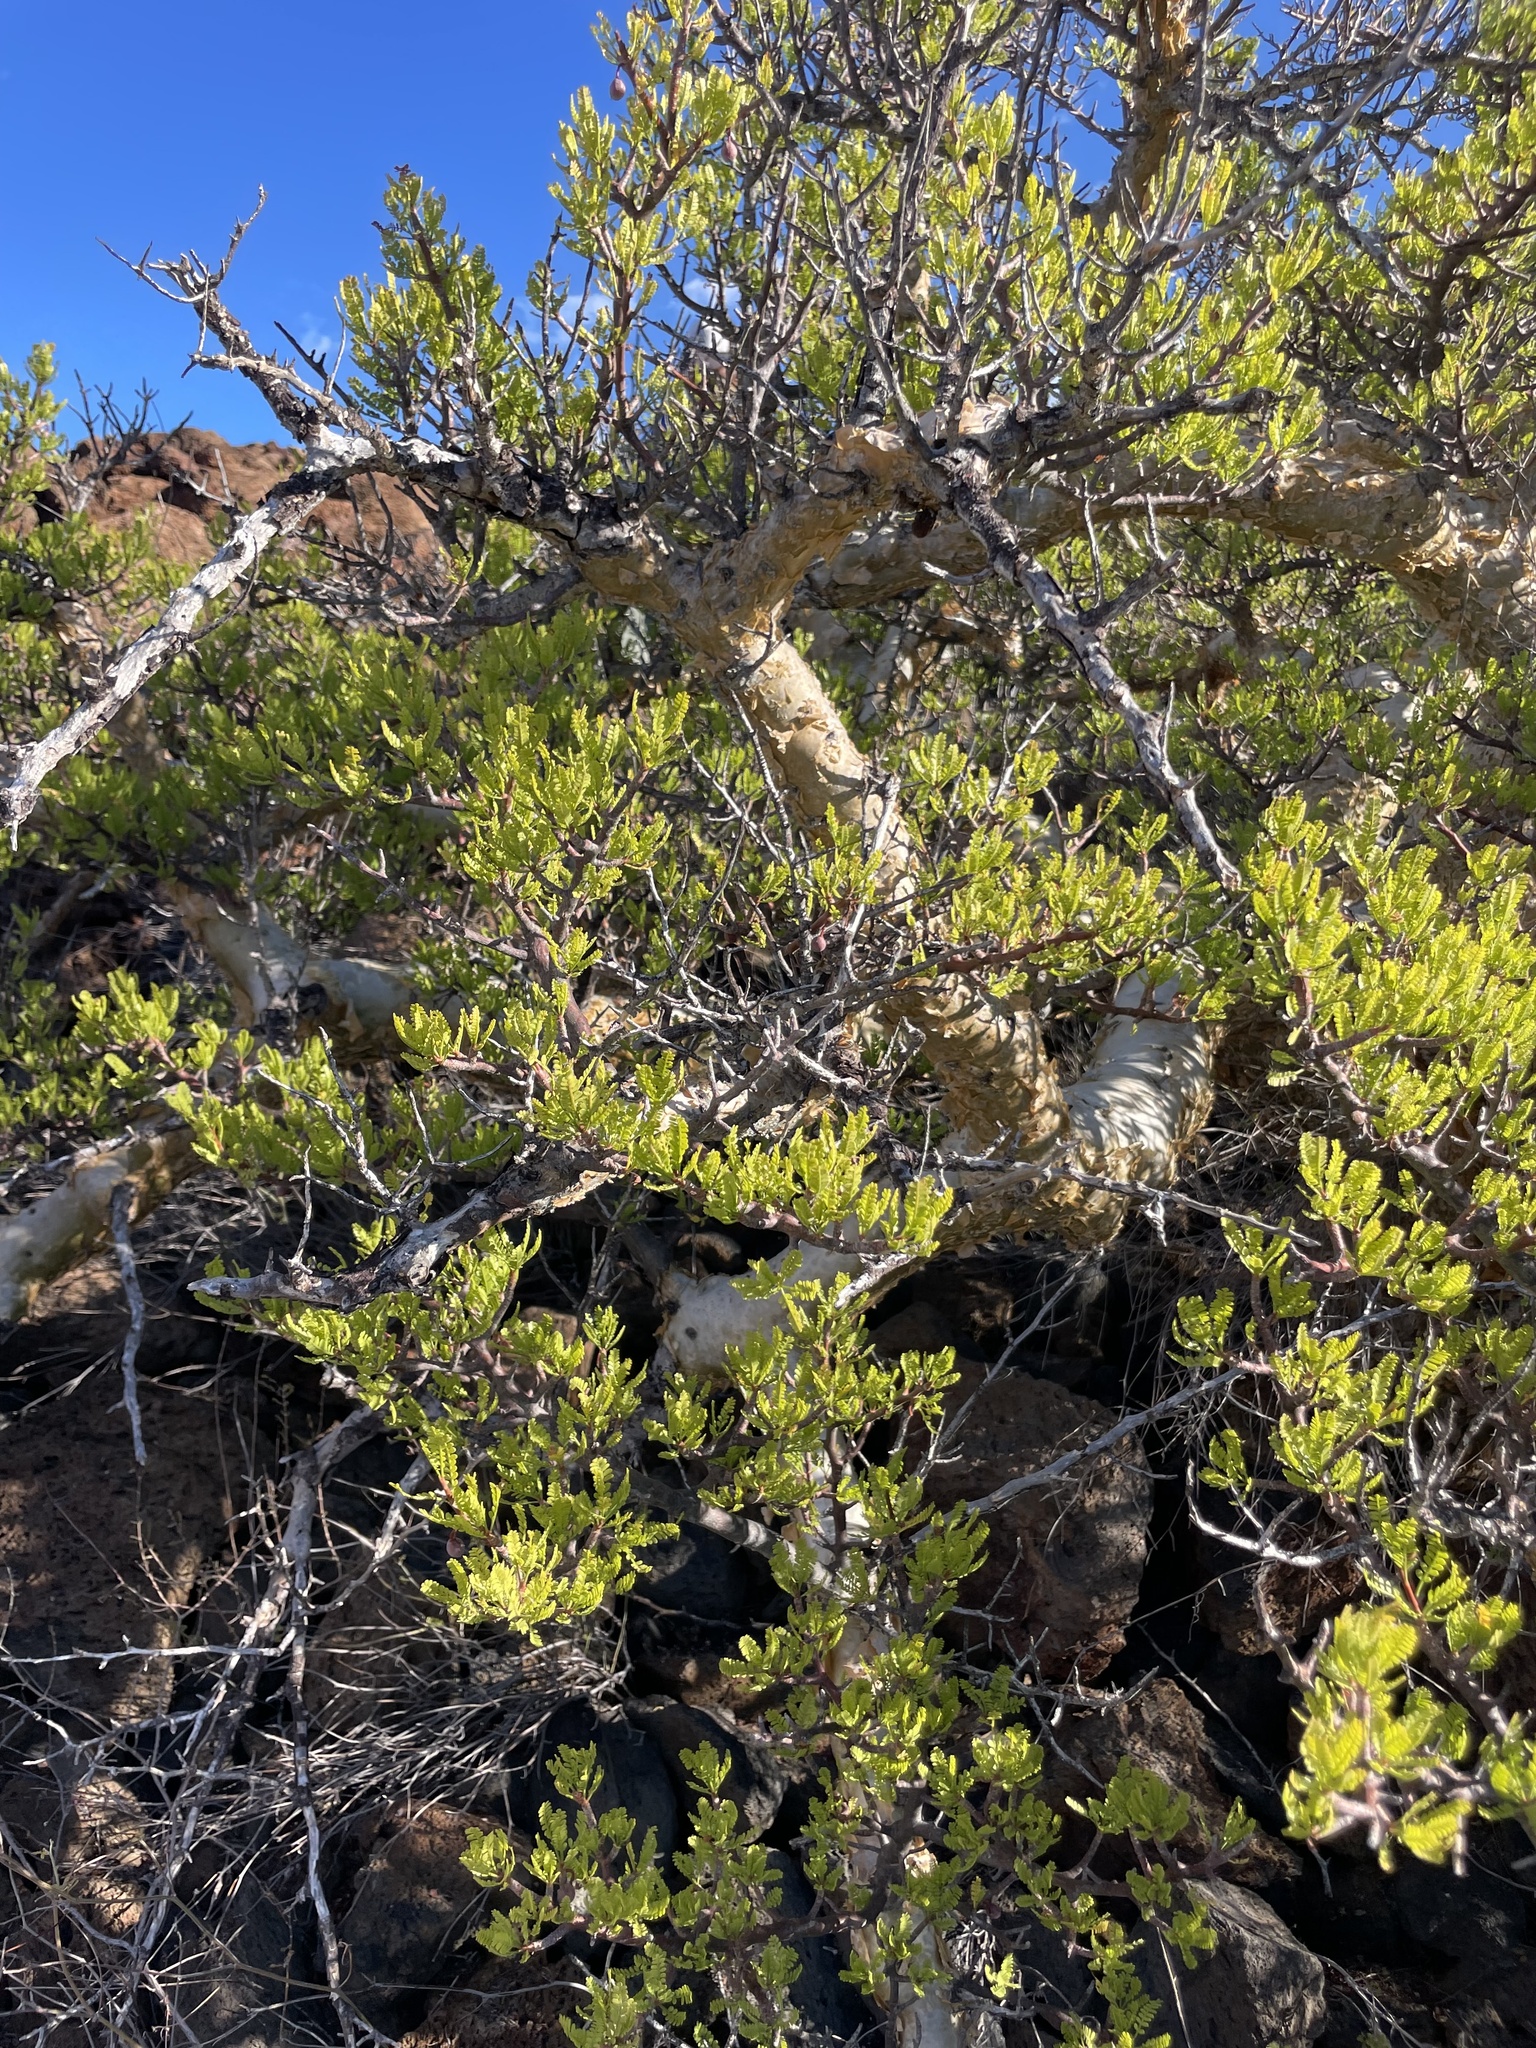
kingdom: Plantae
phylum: Tracheophyta
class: Magnoliopsida
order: Sapindales
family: Burseraceae
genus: Bursera
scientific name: Bursera microphylla
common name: Elephant tree
